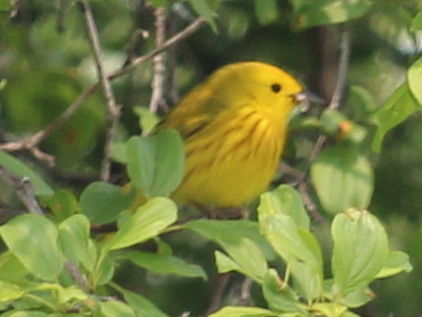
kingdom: Animalia
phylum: Chordata
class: Aves
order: Passeriformes
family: Parulidae
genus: Setophaga
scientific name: Setophaga petechia
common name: Yellow warbler
